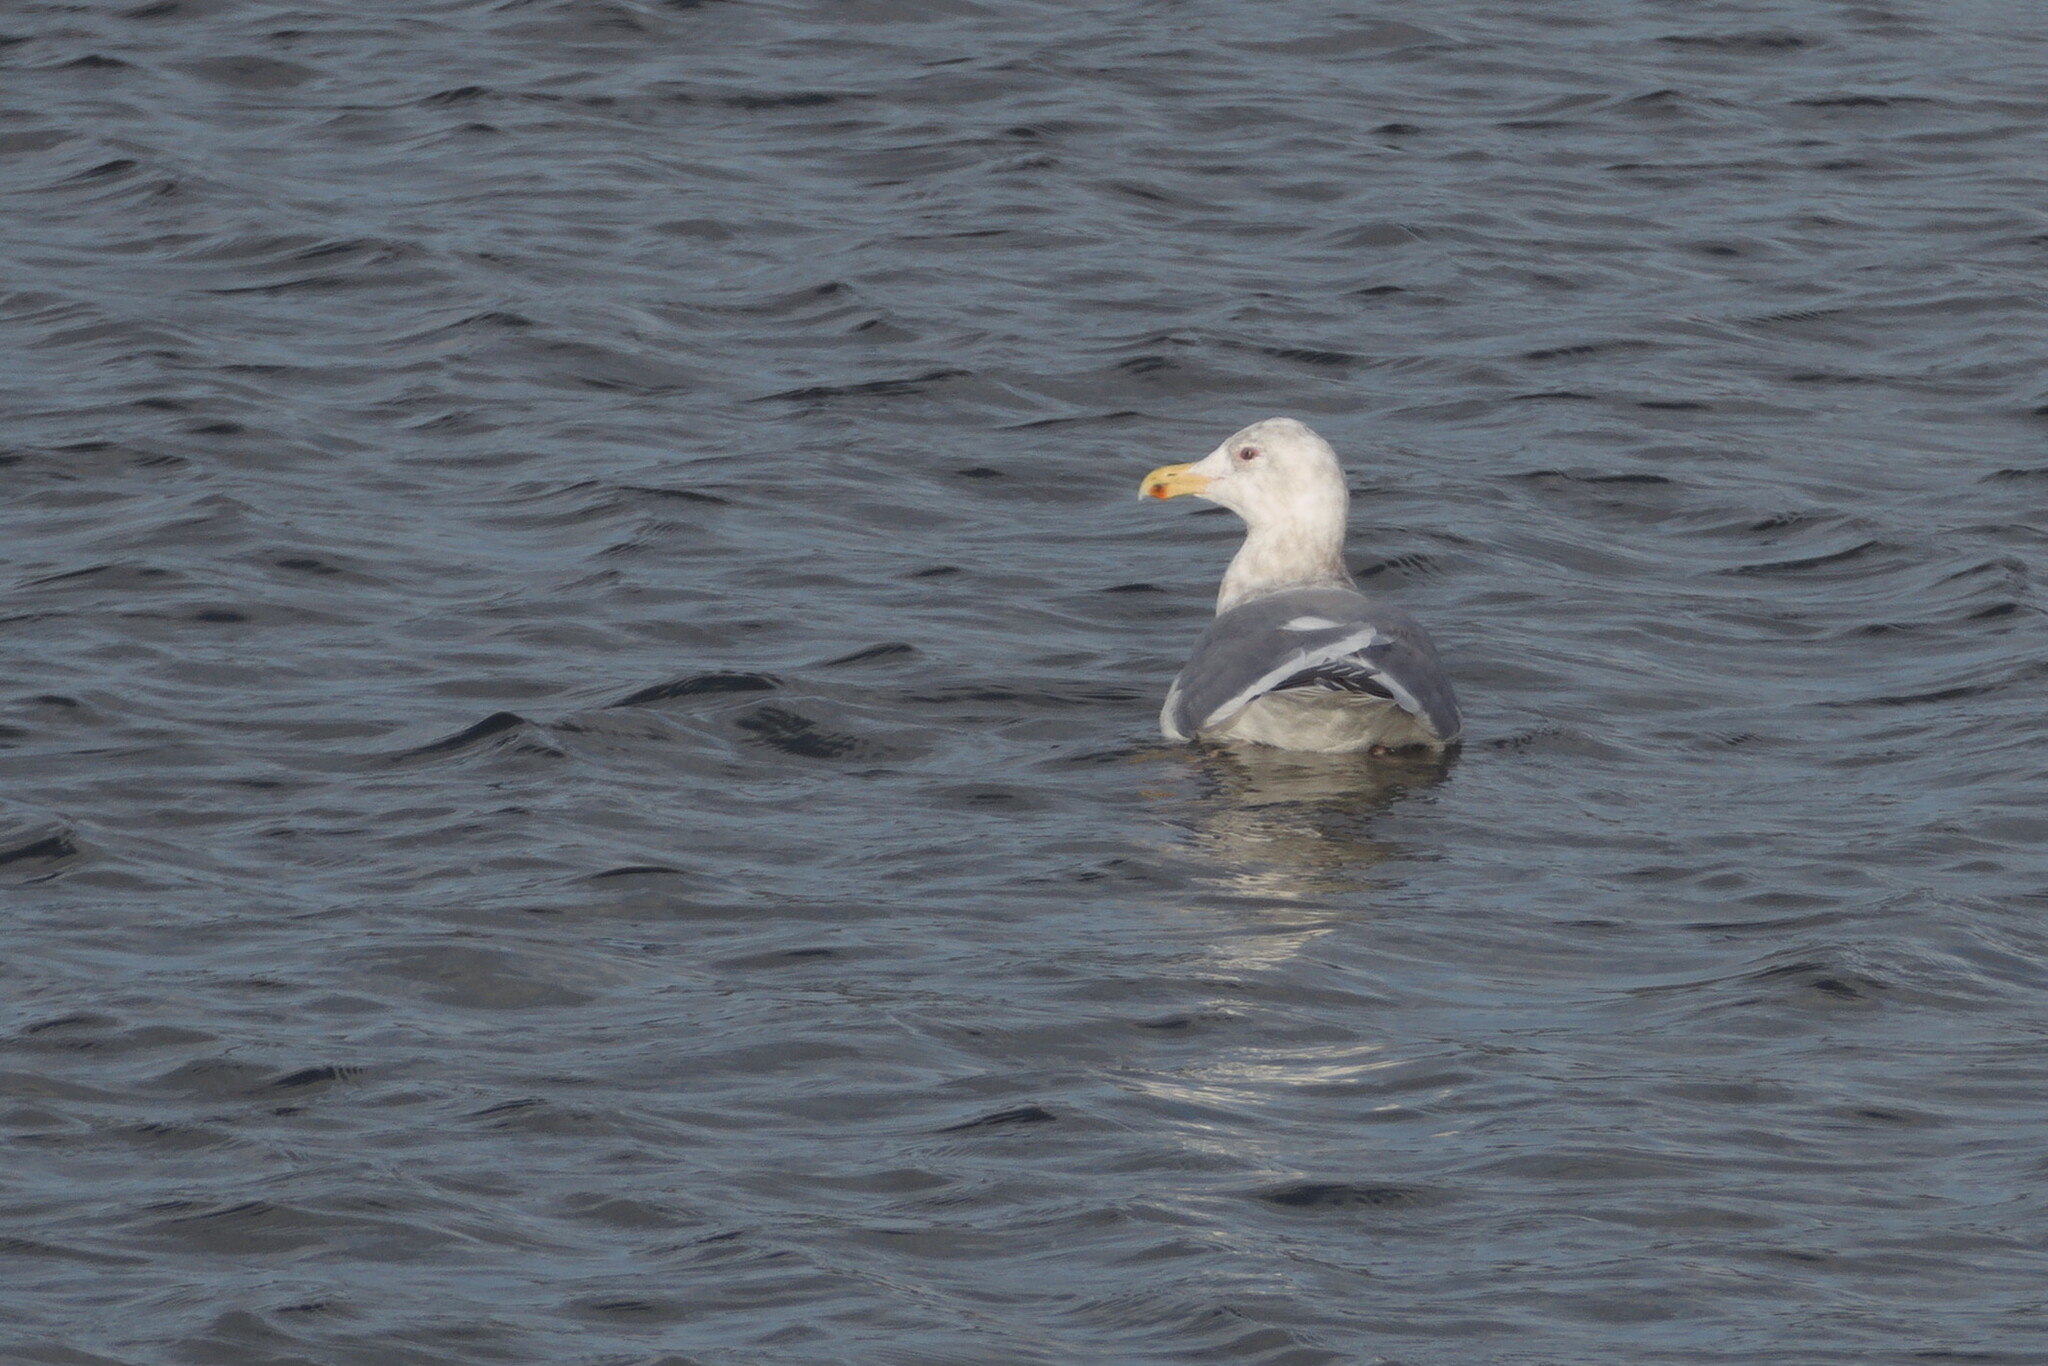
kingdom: Animalia
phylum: Chordata
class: Aves
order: Charadriiformes
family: Laridae
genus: Larus
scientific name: Larus occidentalis
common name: Western gull
